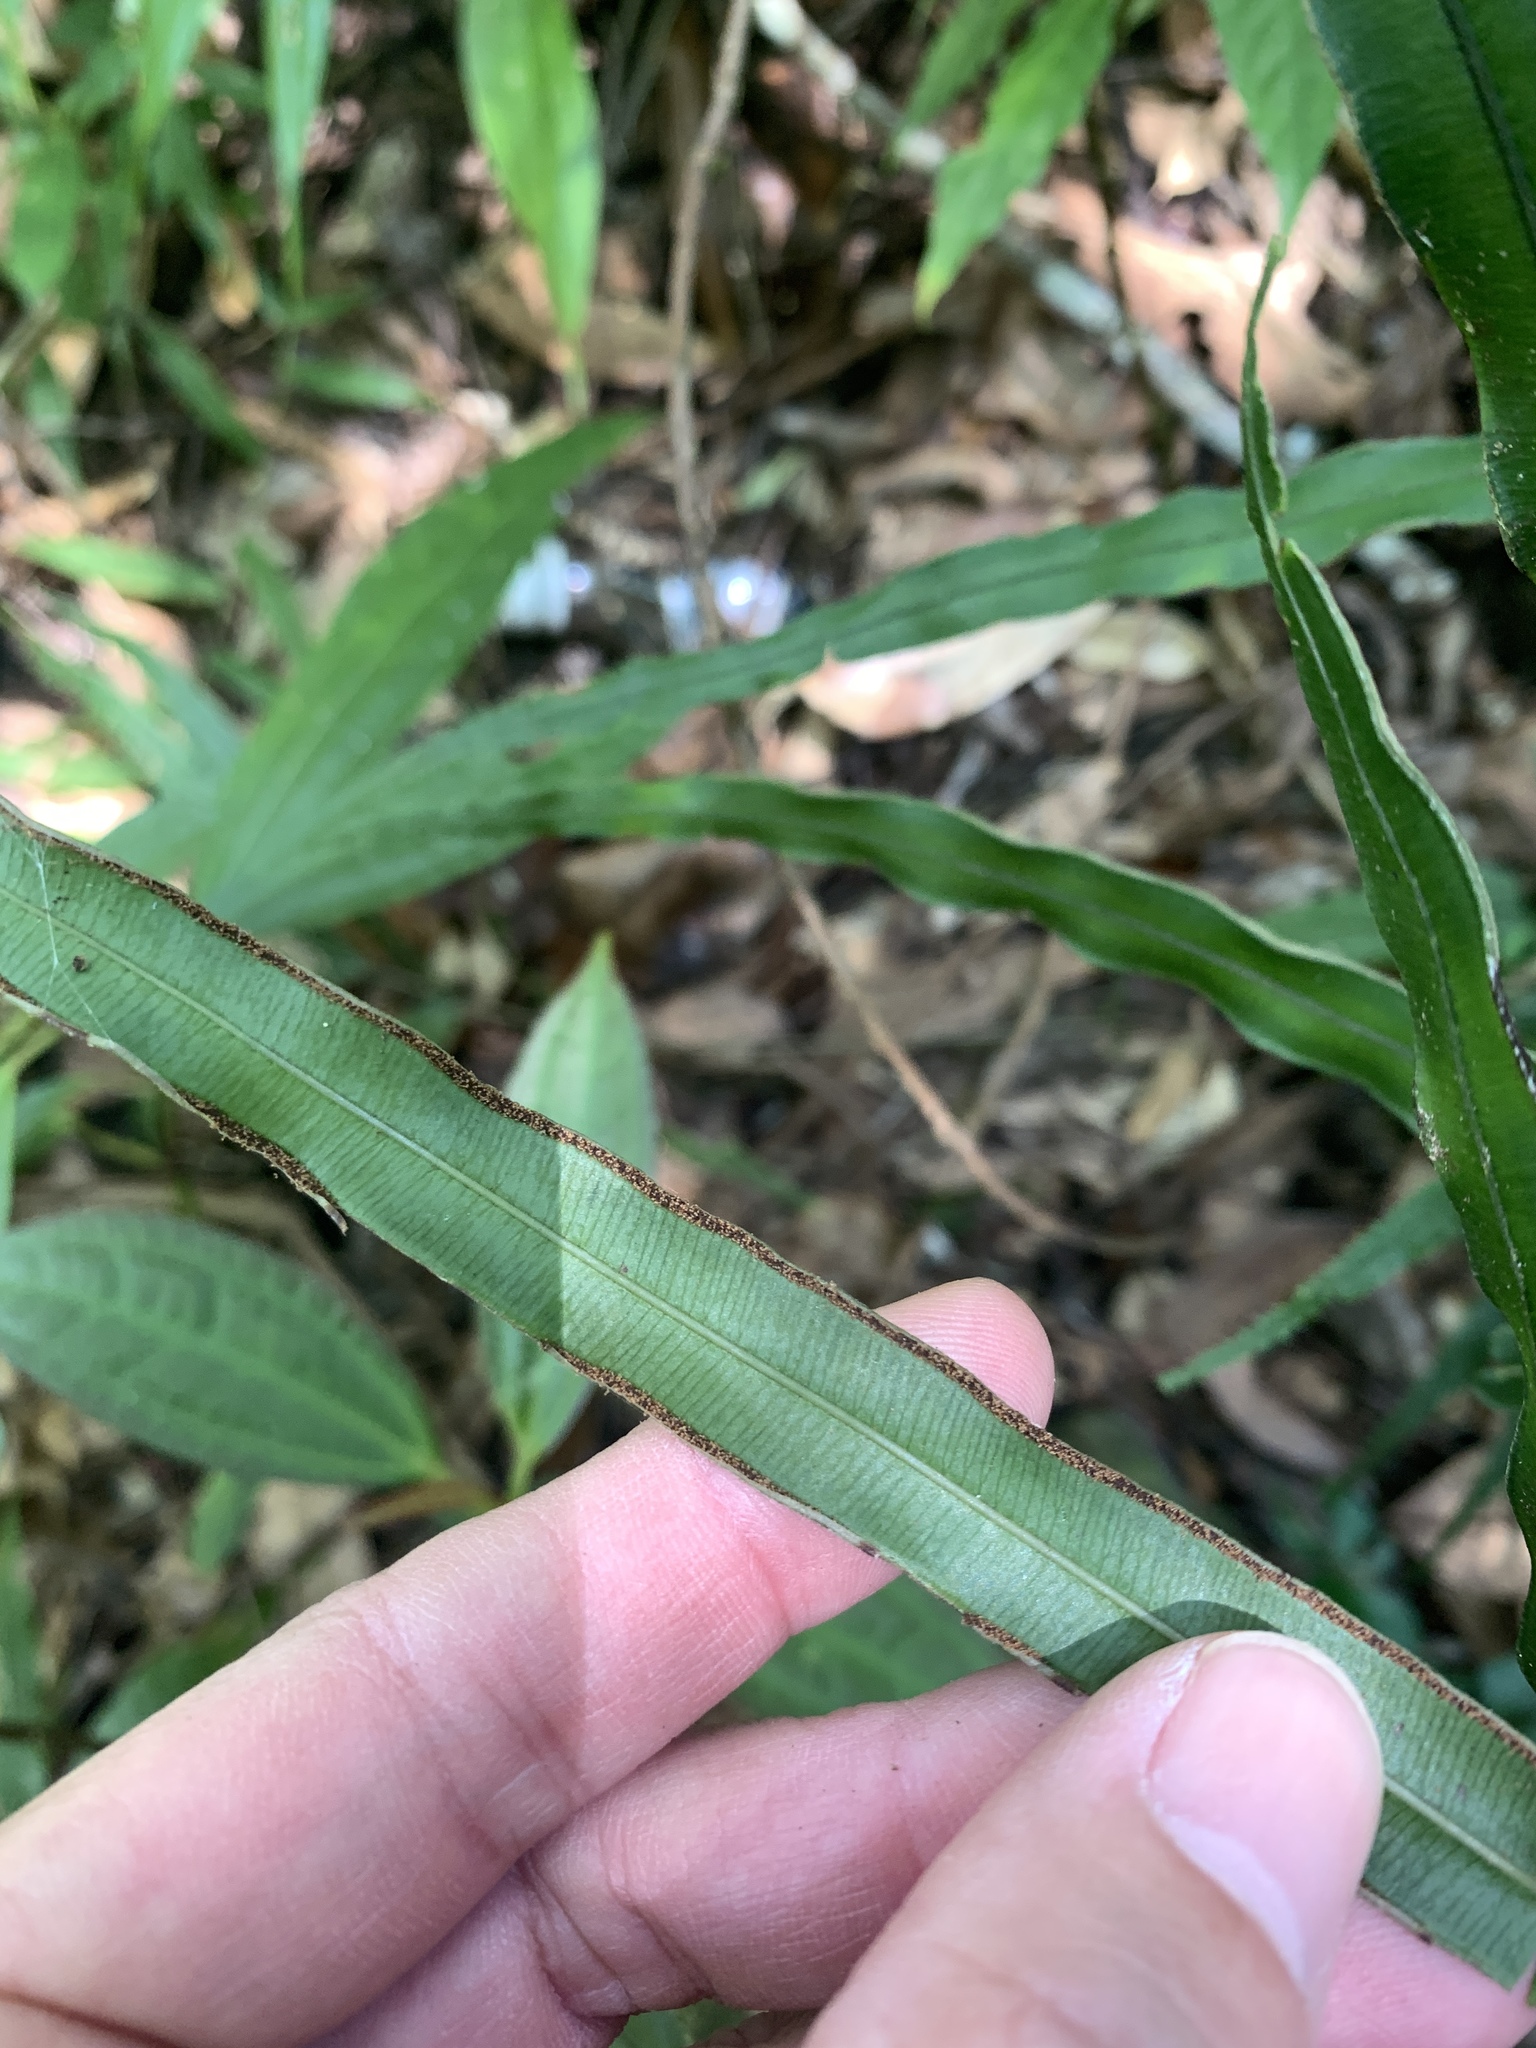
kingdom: Plantae
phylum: Tracheophyta
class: Polypodiopsida
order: Polypodiales
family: Pteridaceae
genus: Pteris
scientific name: Pteris cretica
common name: Ribbon fern
